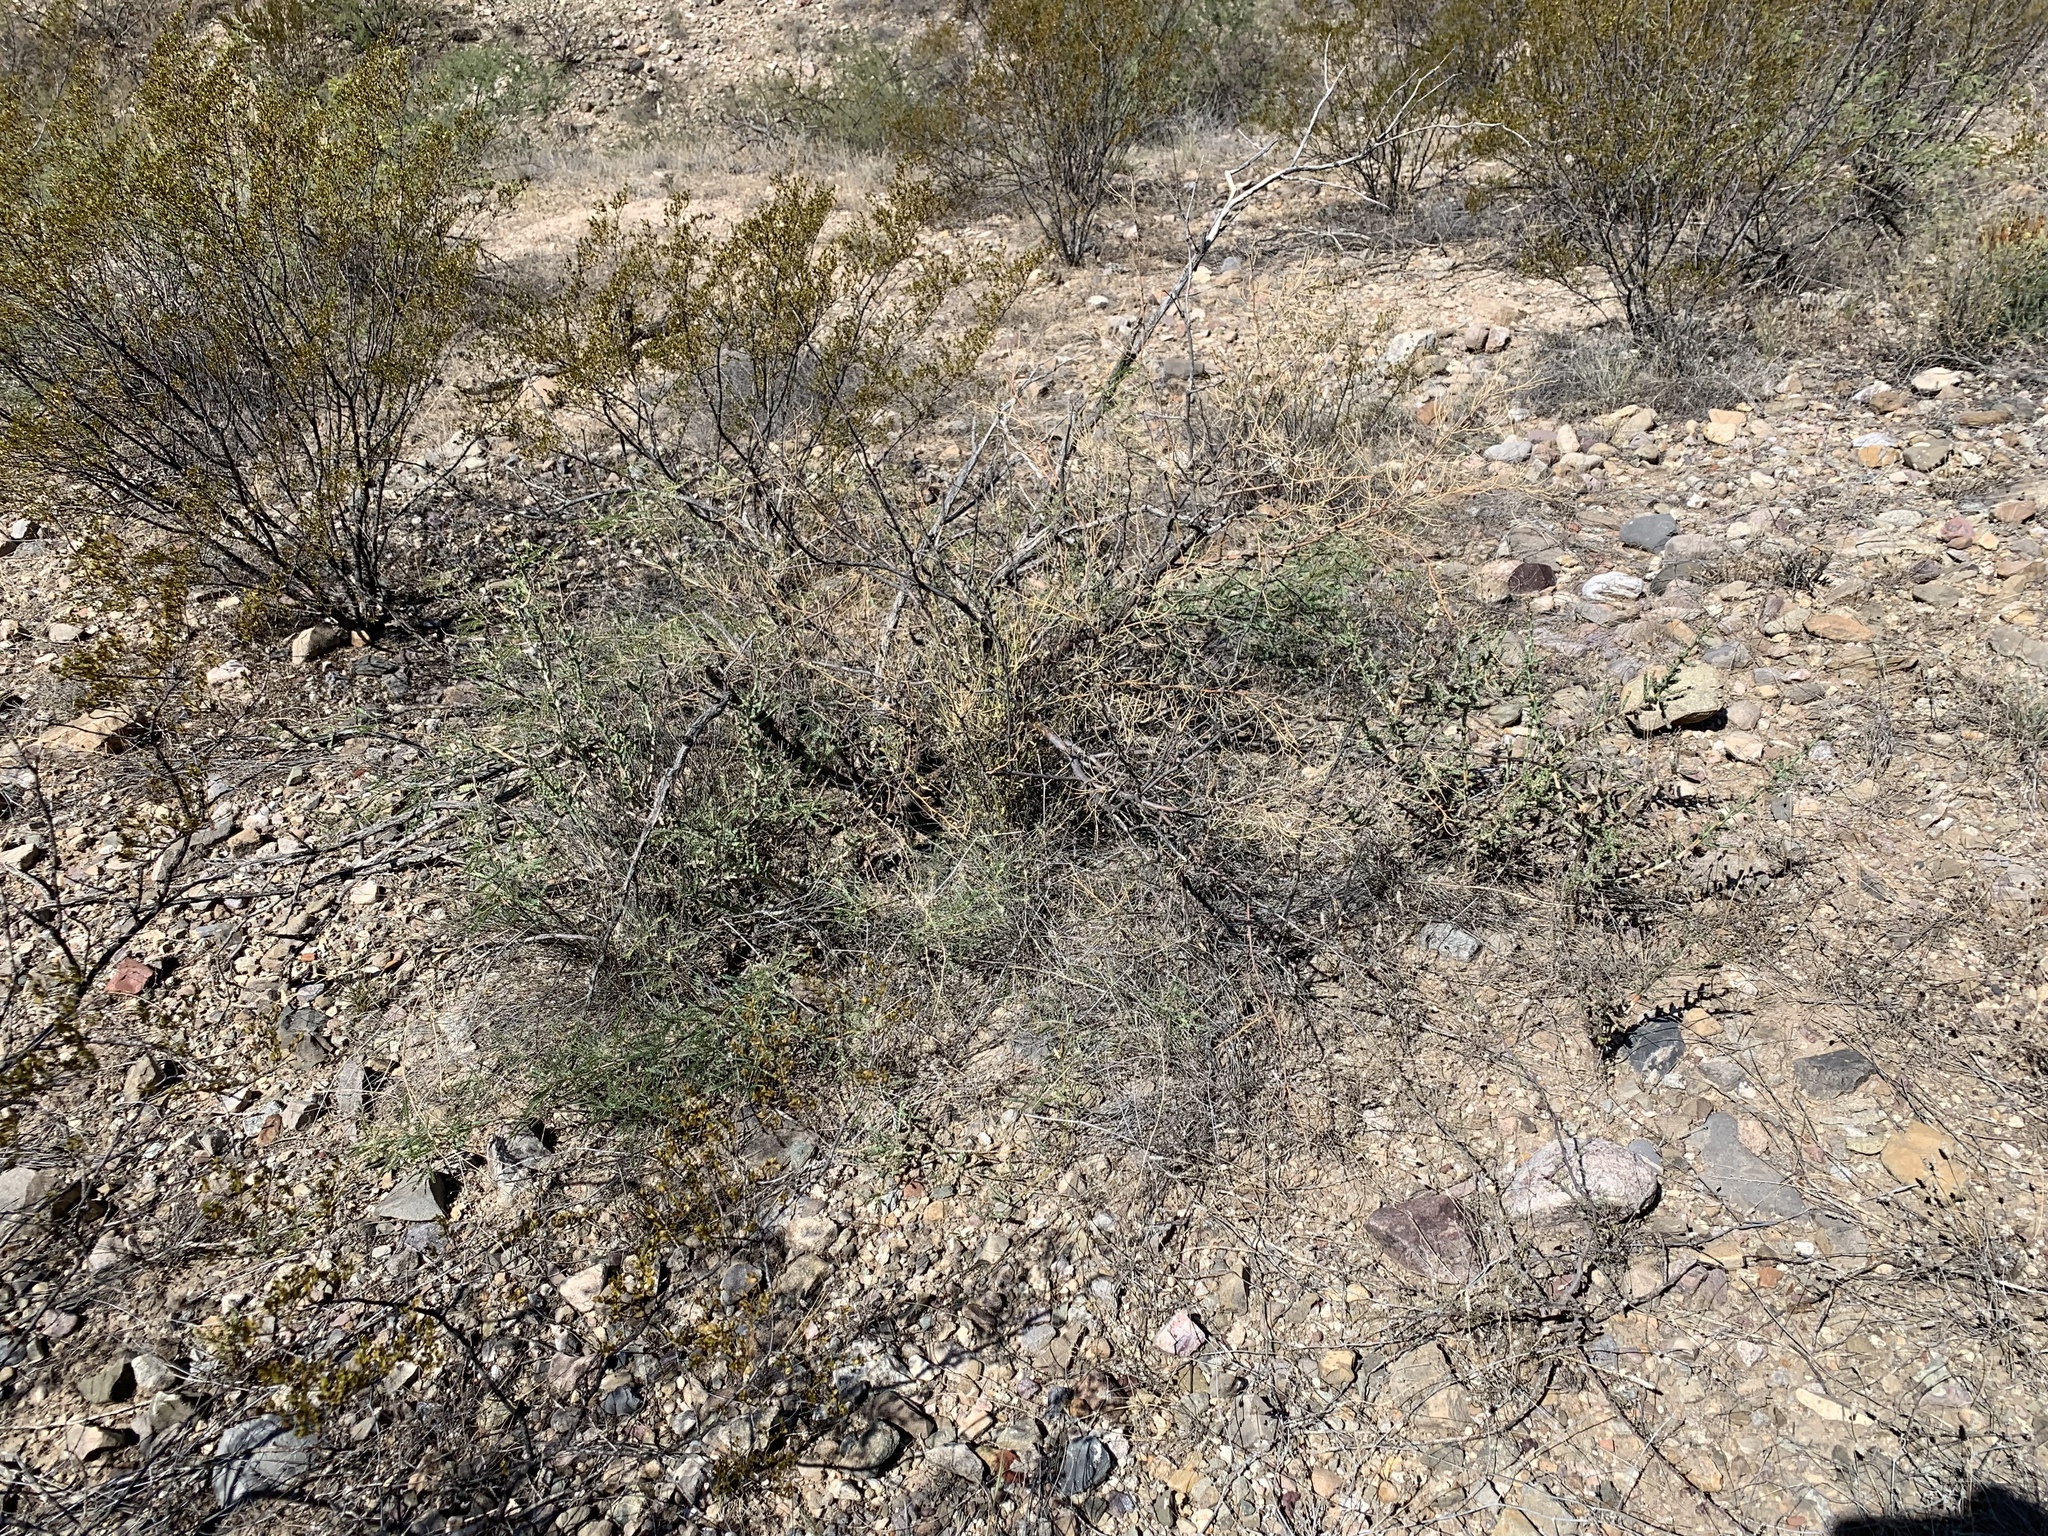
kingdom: Plantae
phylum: Tracheophyta
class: Magnoliopsida
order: Caryophyllales
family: Cactaceae
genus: Cylindropuntia
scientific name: Cylindropuntia leptocaulis
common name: Christmas cactus
